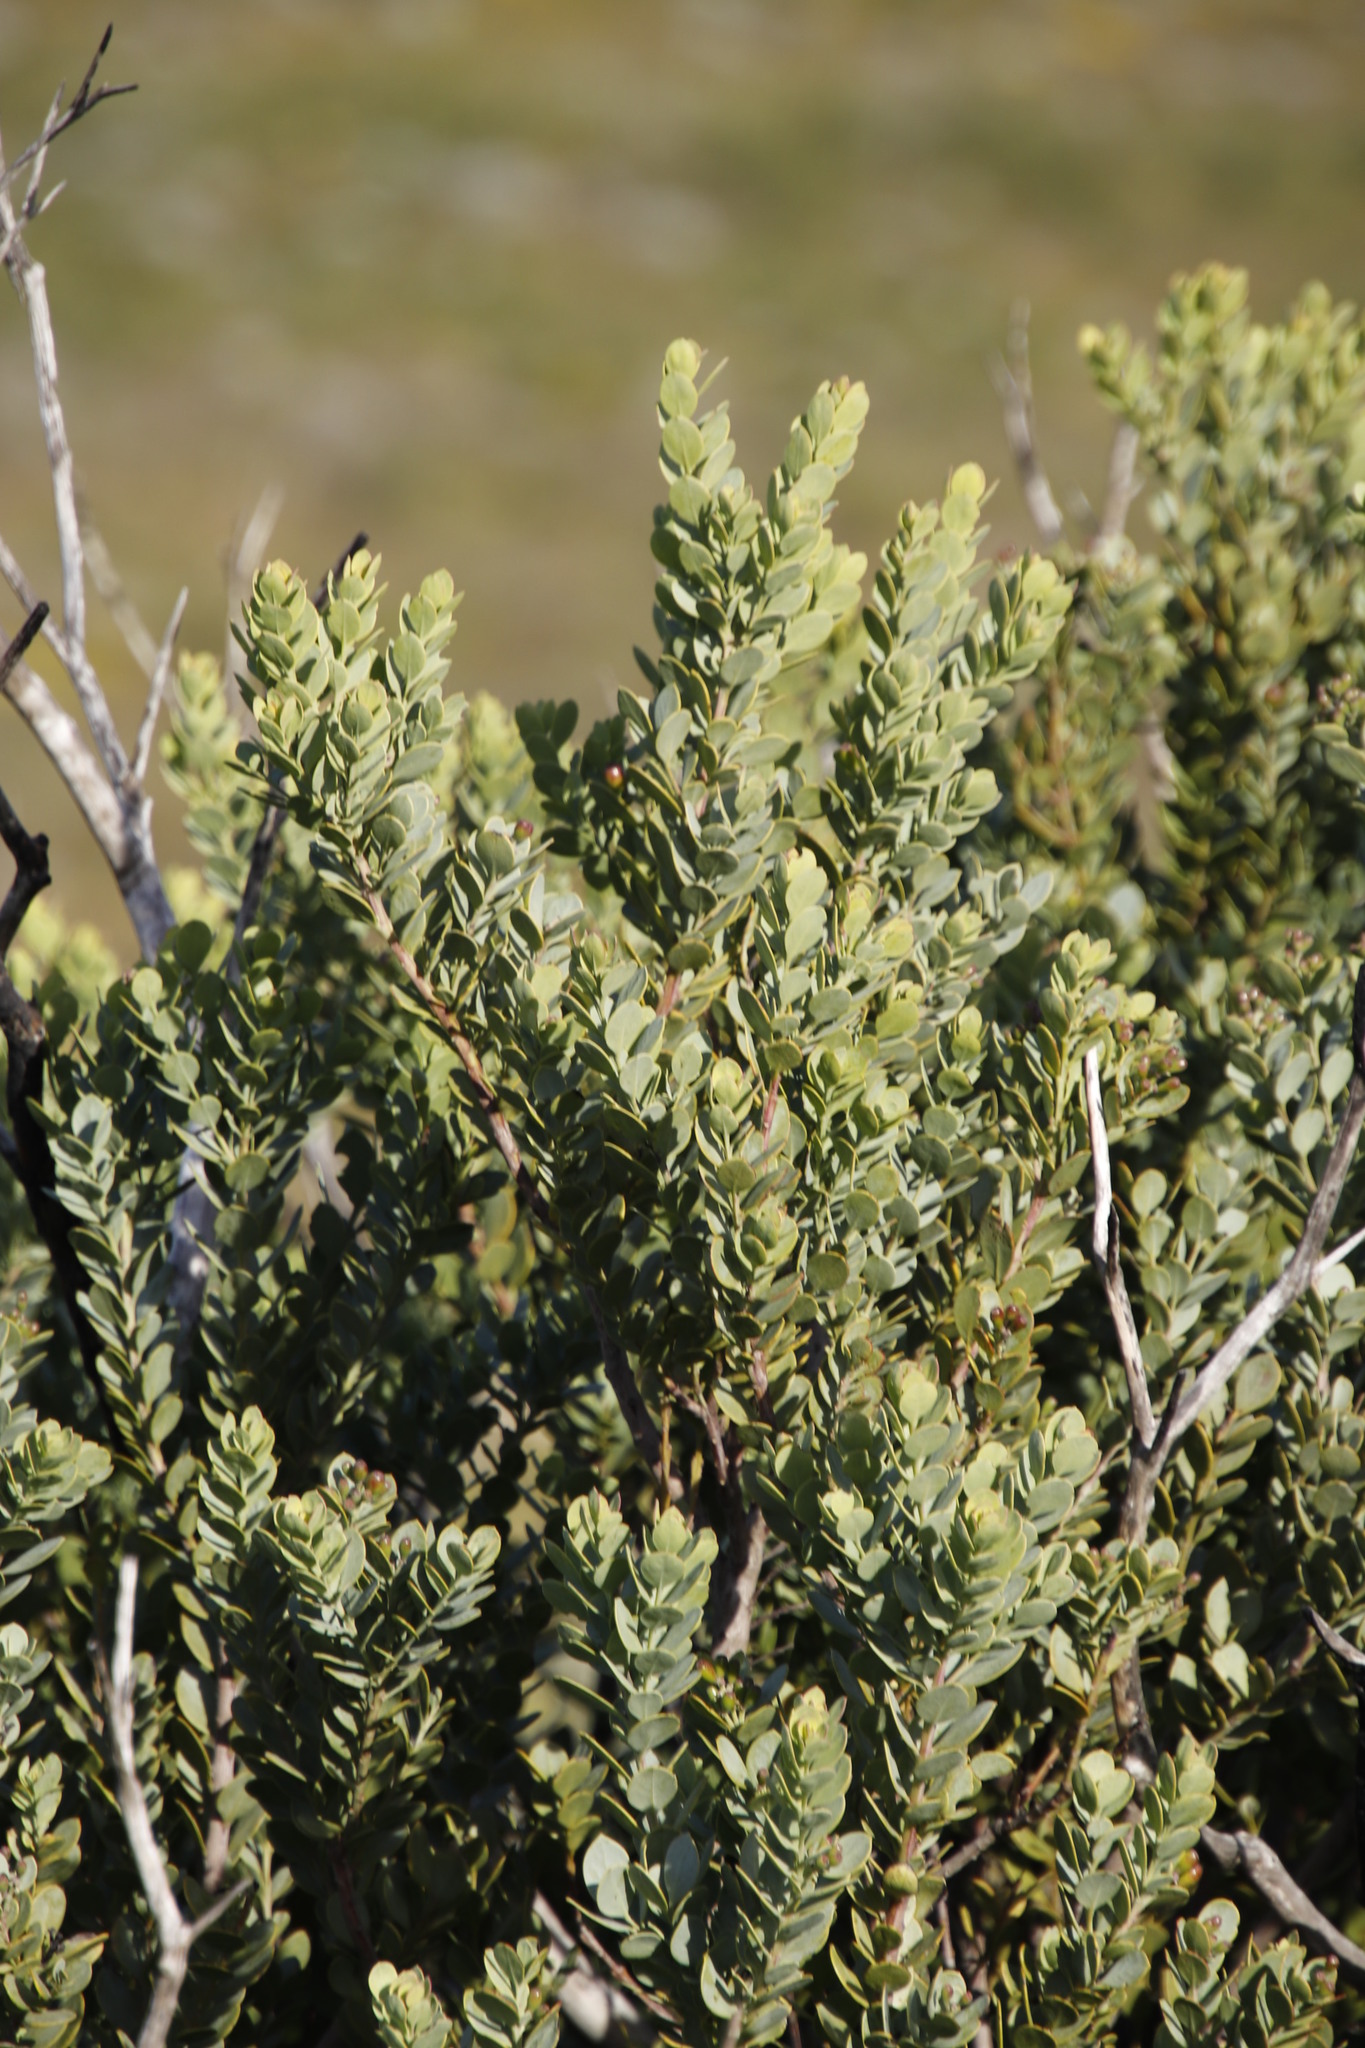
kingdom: Plantae
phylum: Tracheophyta
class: Magnoliopsida
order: Santalales
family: Santalaceae
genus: Osyris
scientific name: Osyris compressa
